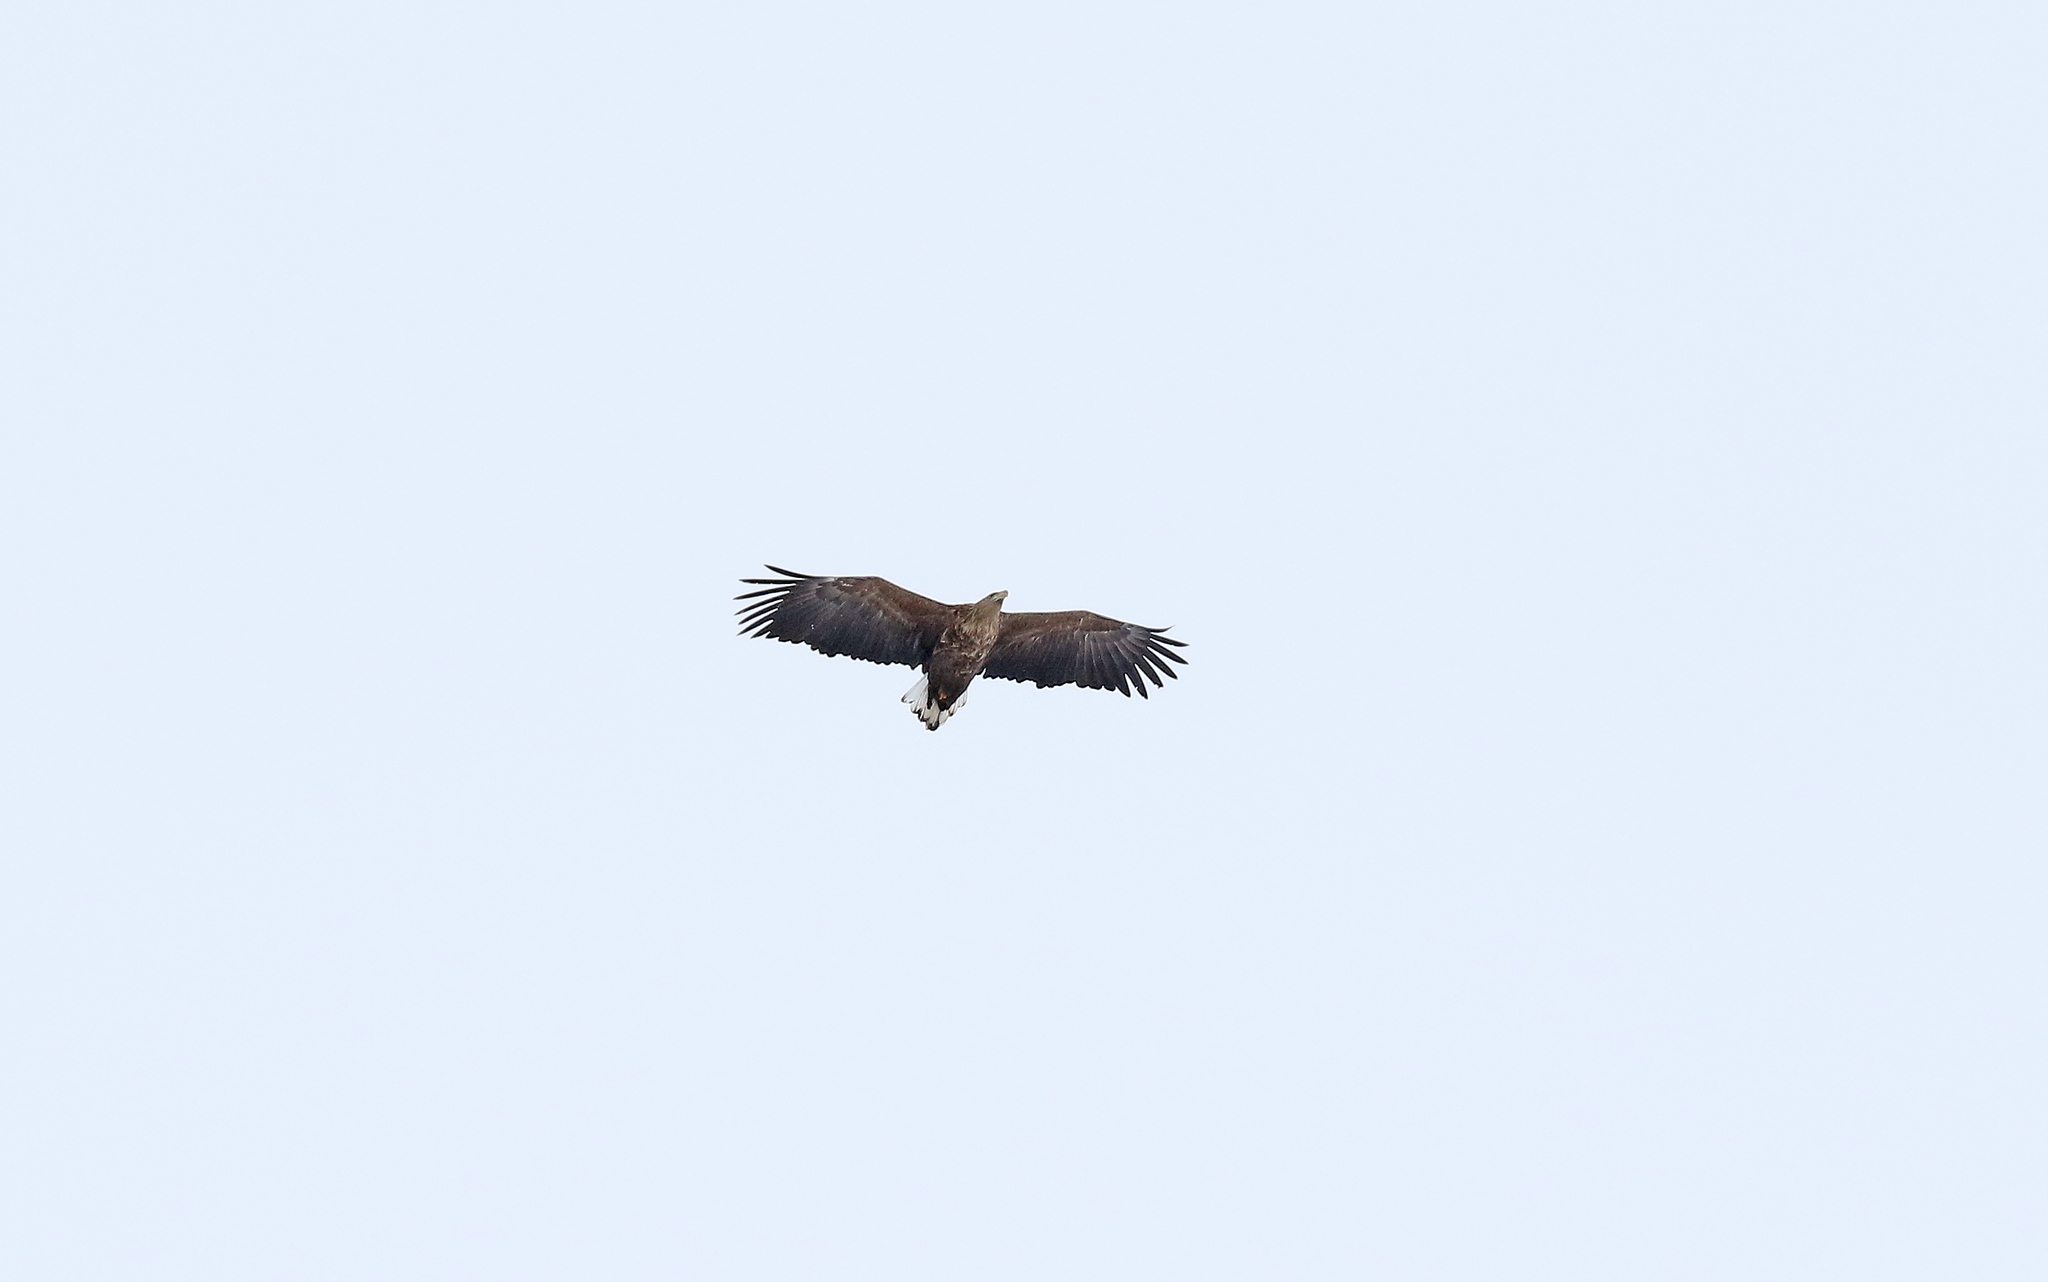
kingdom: Animalia
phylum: Chordata
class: Aves
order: Accipitriformes
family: Accipitridae
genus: Haliaeetus
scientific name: Haliaeetus albicilla
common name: White-tailed eagle
